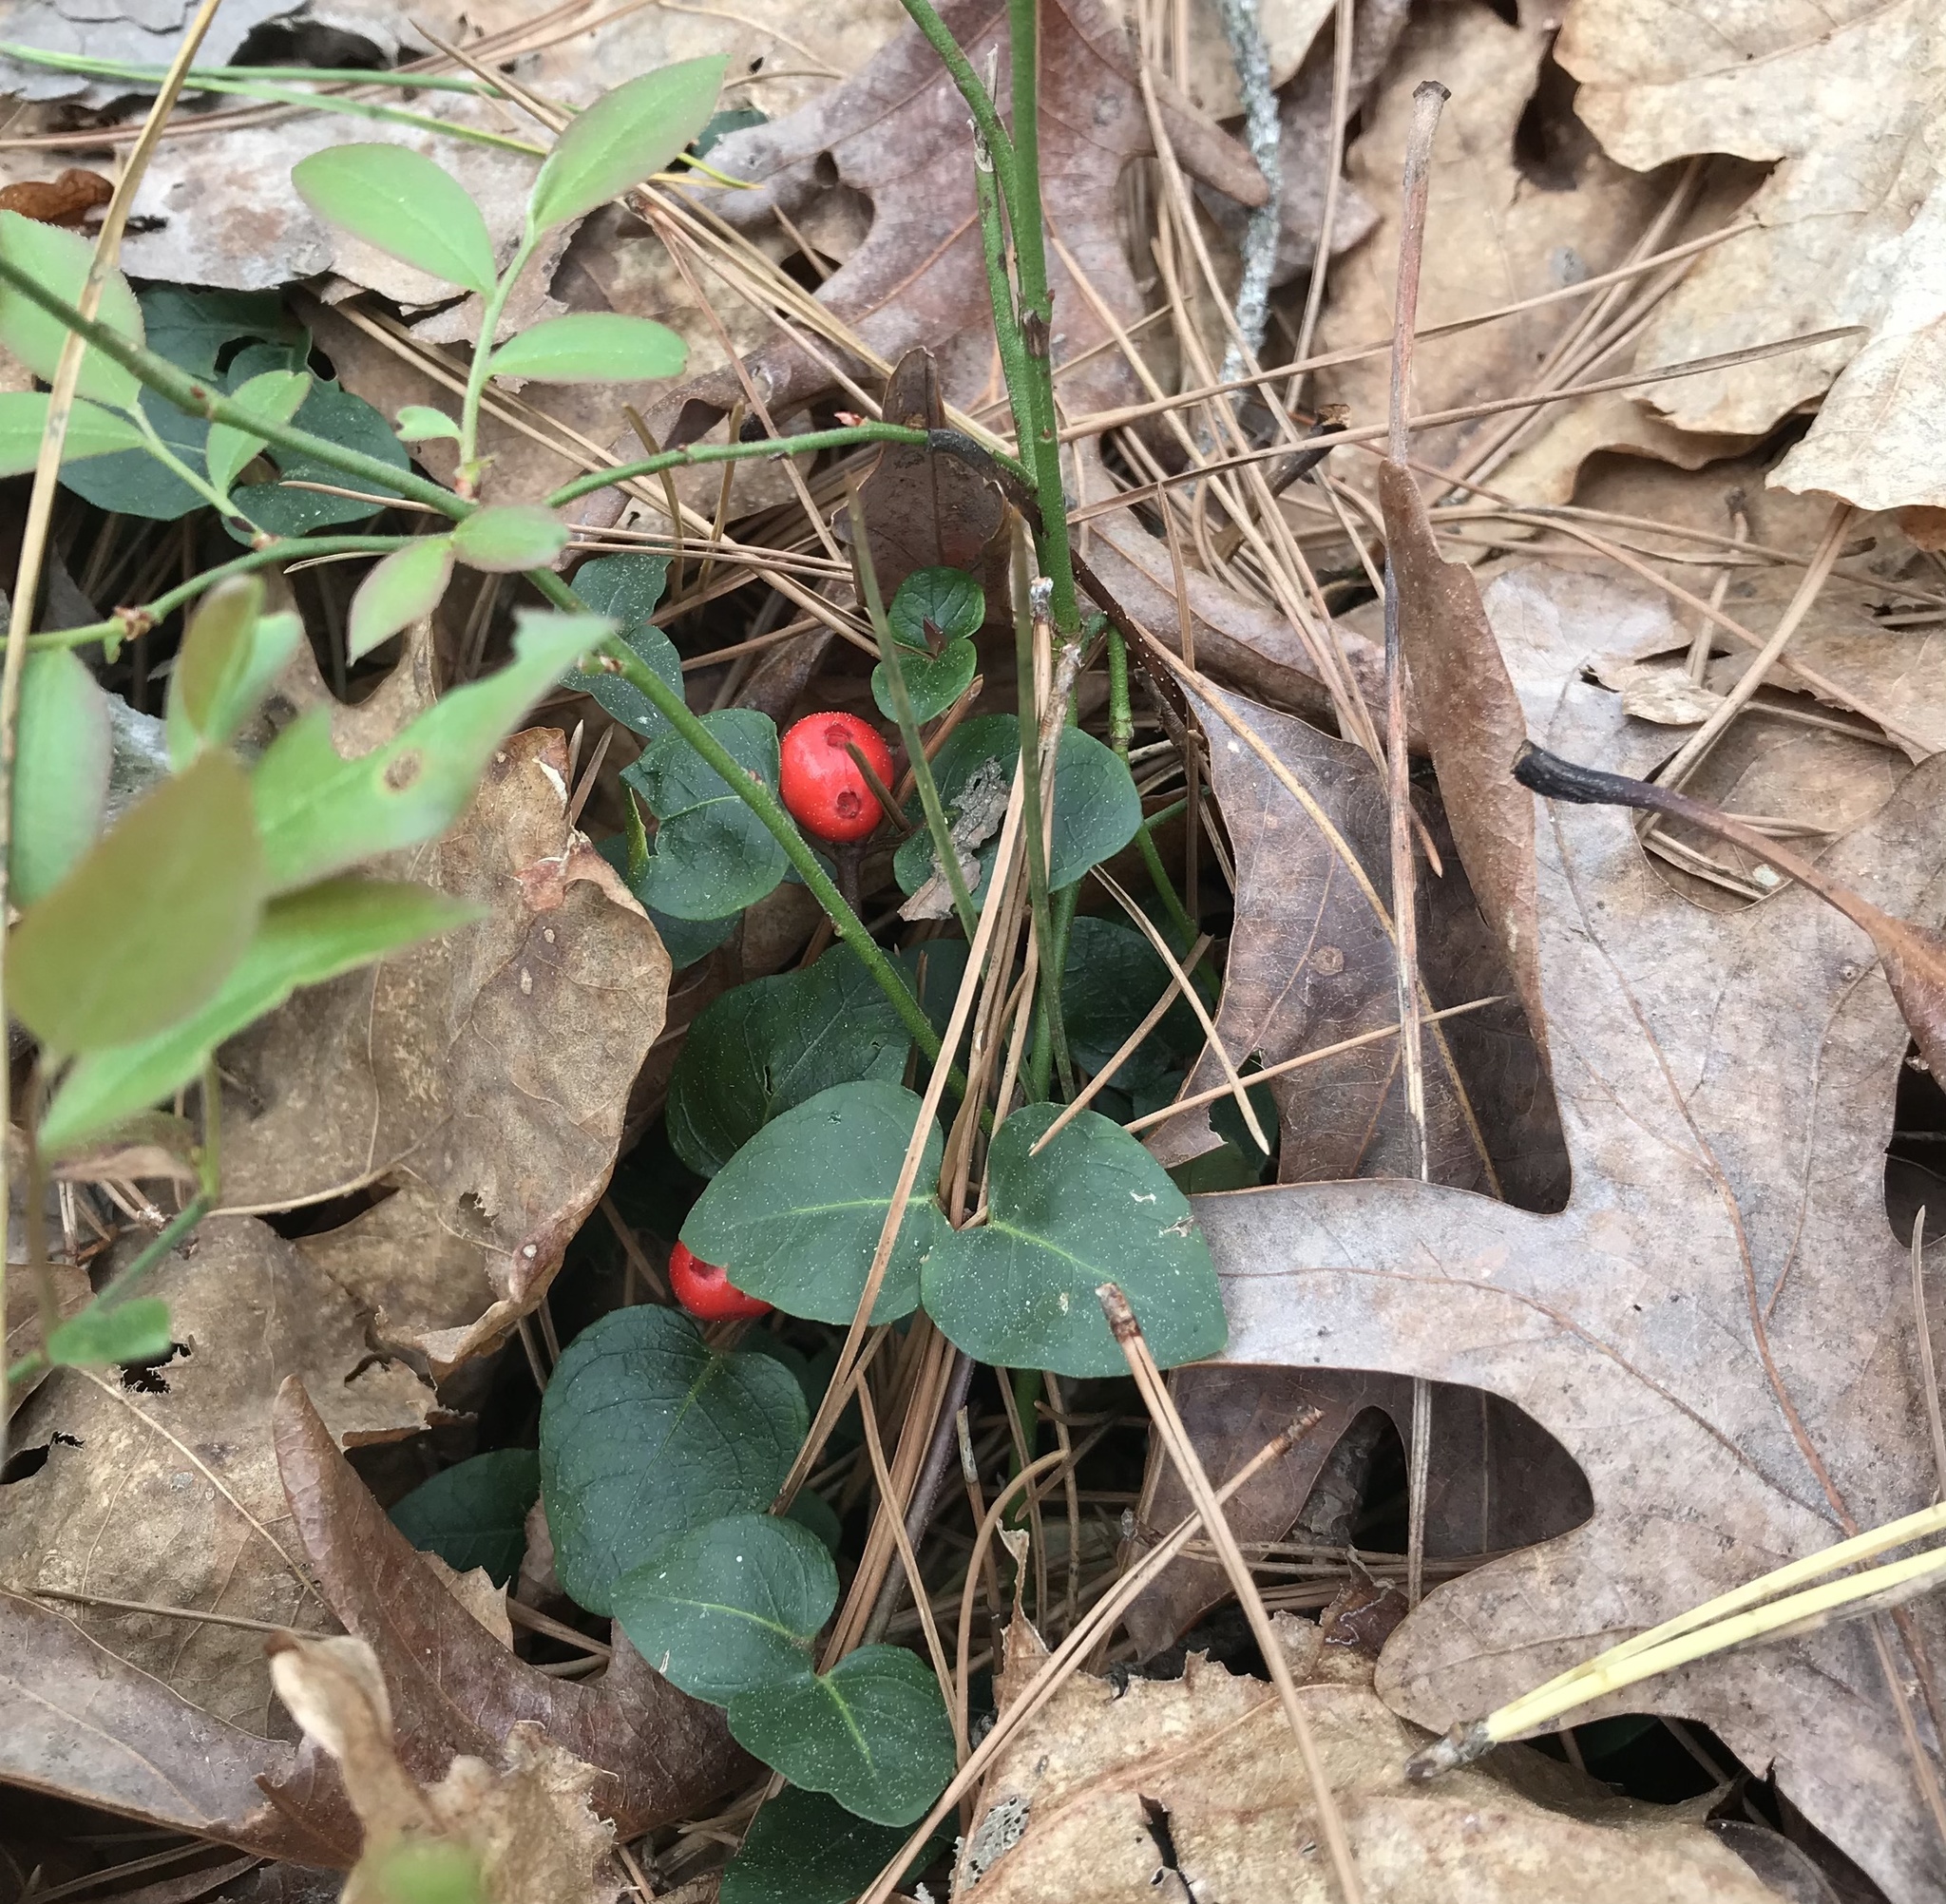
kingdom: Plantae
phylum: Tracheophyta
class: Magnoliopsida
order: Gentianales
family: Rubiaceae
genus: Mitchella
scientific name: Mitchella repens
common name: Partridge-berry
